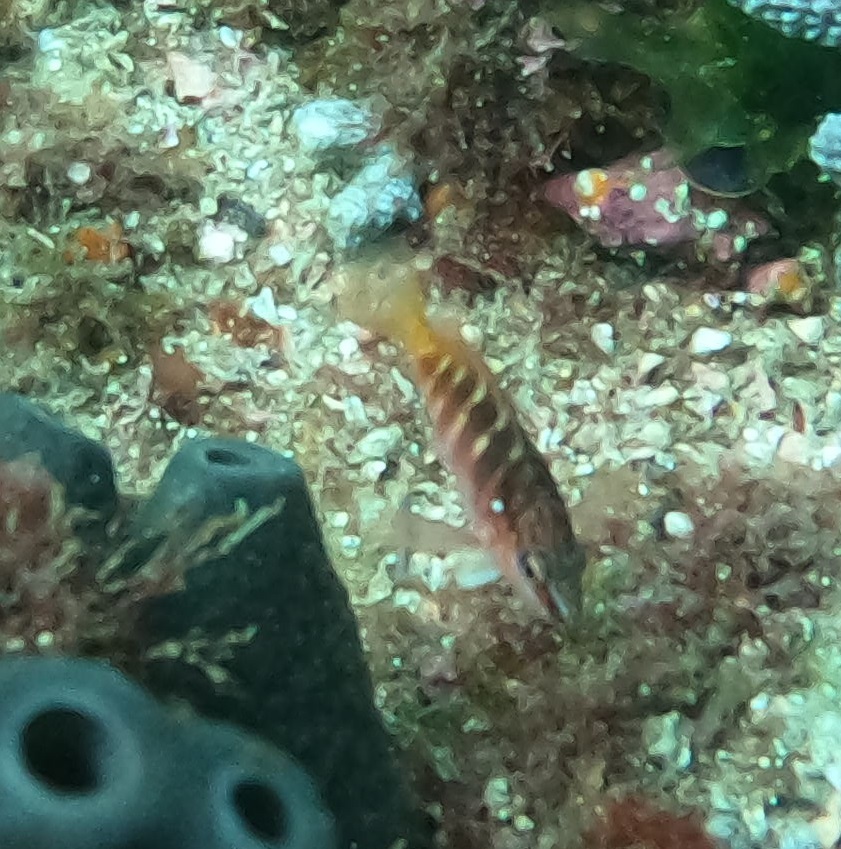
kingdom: Animalia
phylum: Chordata
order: Perciformes
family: Serranidae
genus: Hypoplectrodes
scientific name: Hypoplectrodes maccullochi
